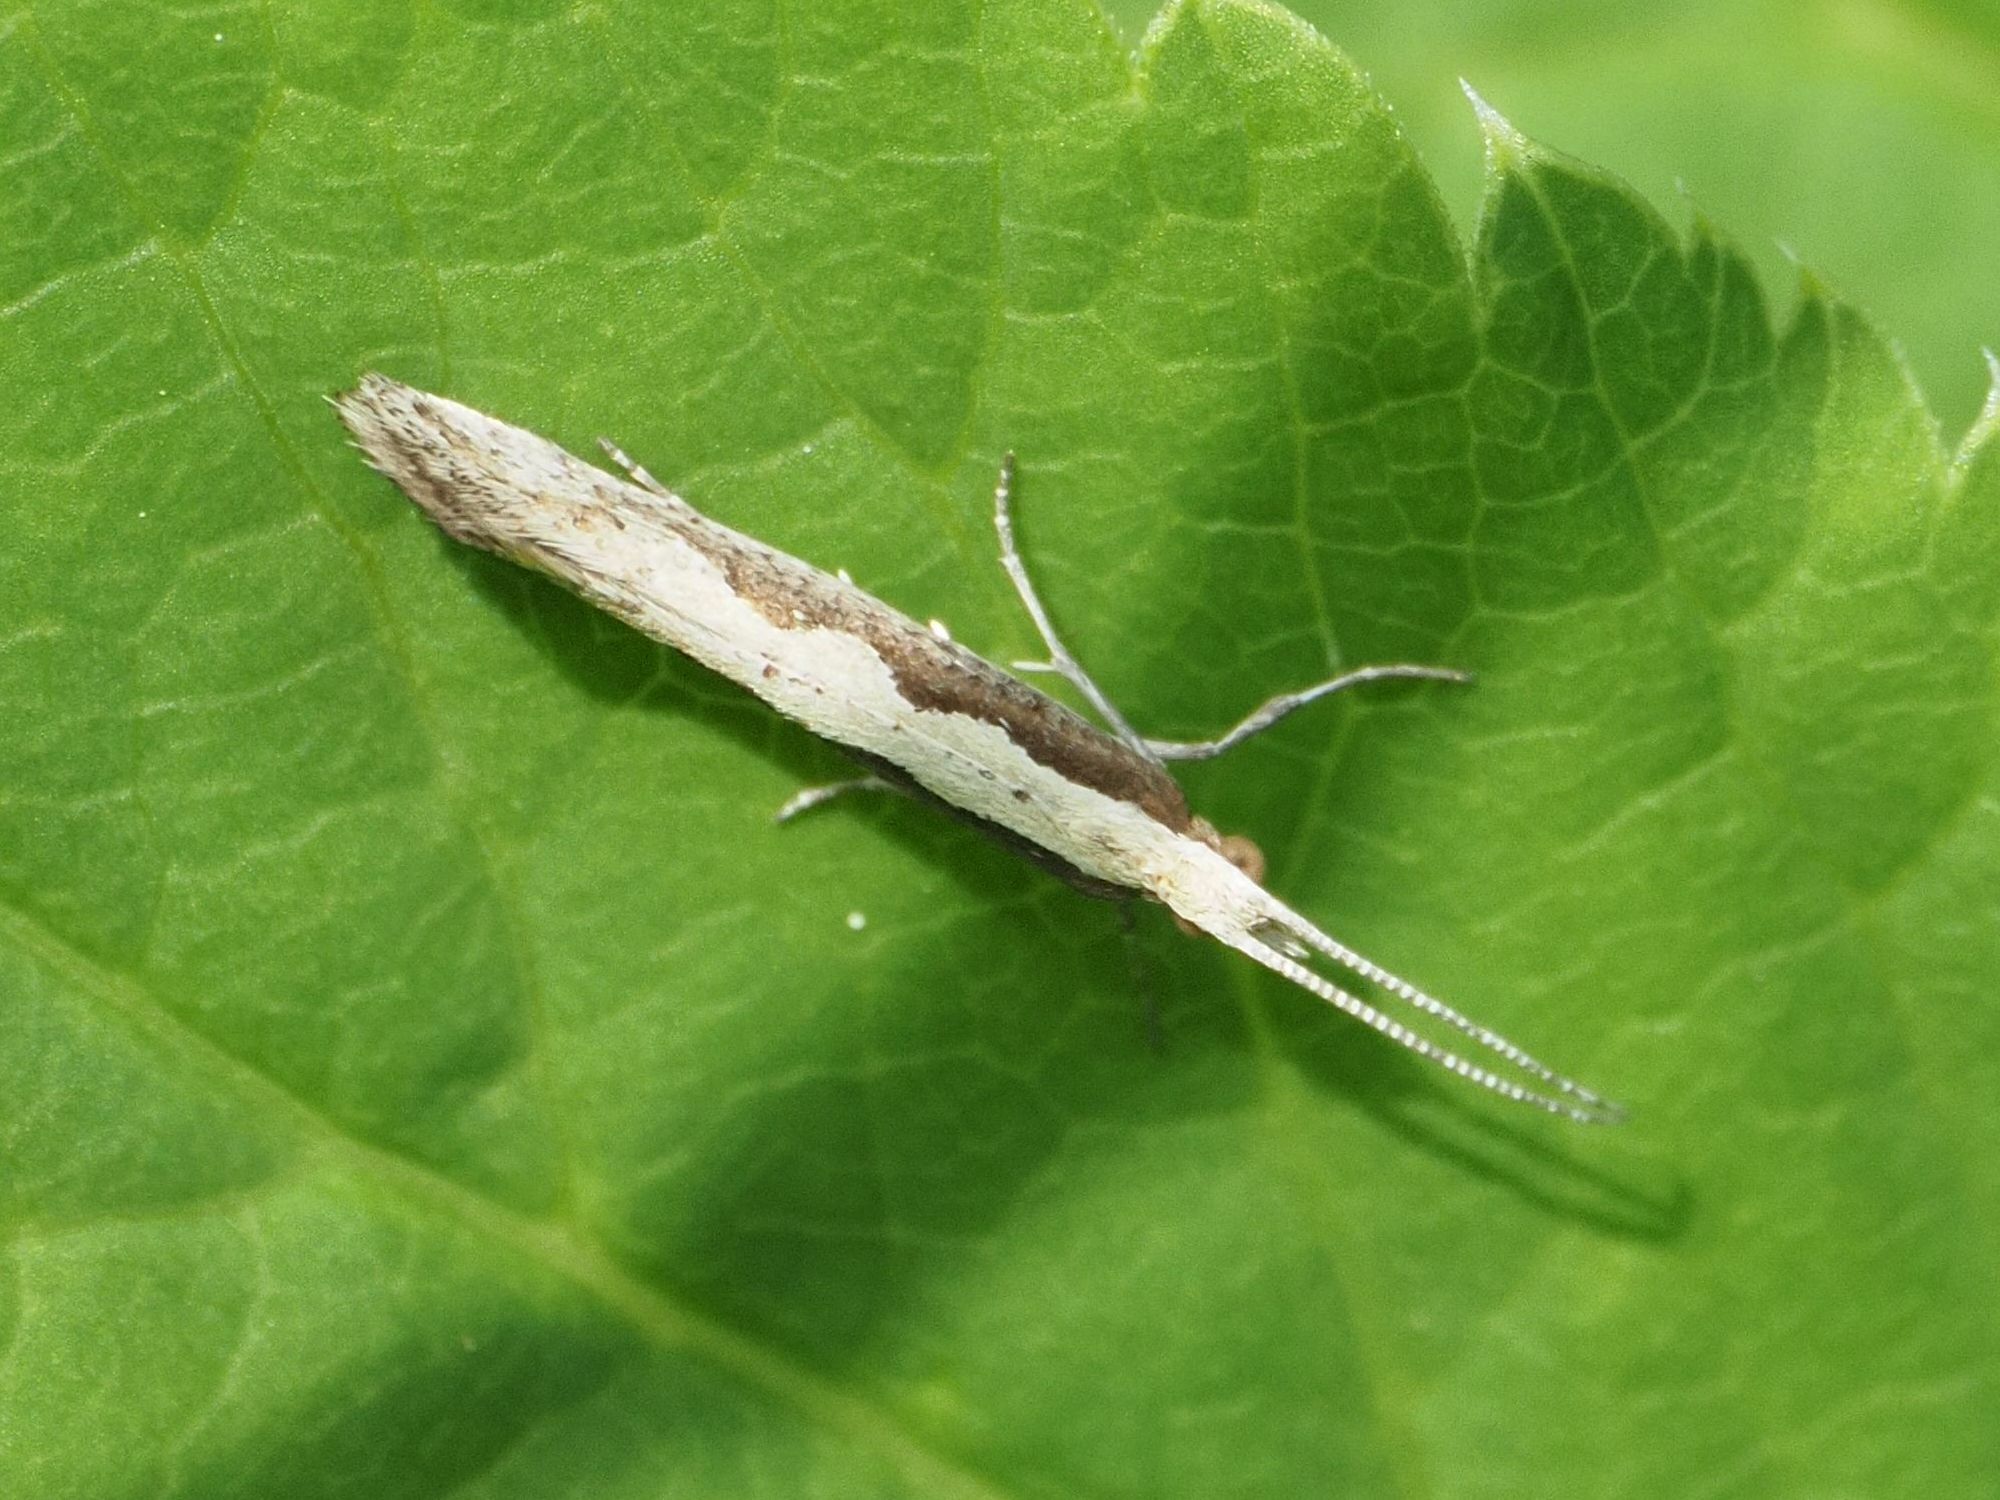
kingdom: Animalia
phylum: Arthropoda
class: Insecta
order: Lepidoptera
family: Plutellidae
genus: Plutella
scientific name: Plutella xylostella
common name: Diamond-back moth
